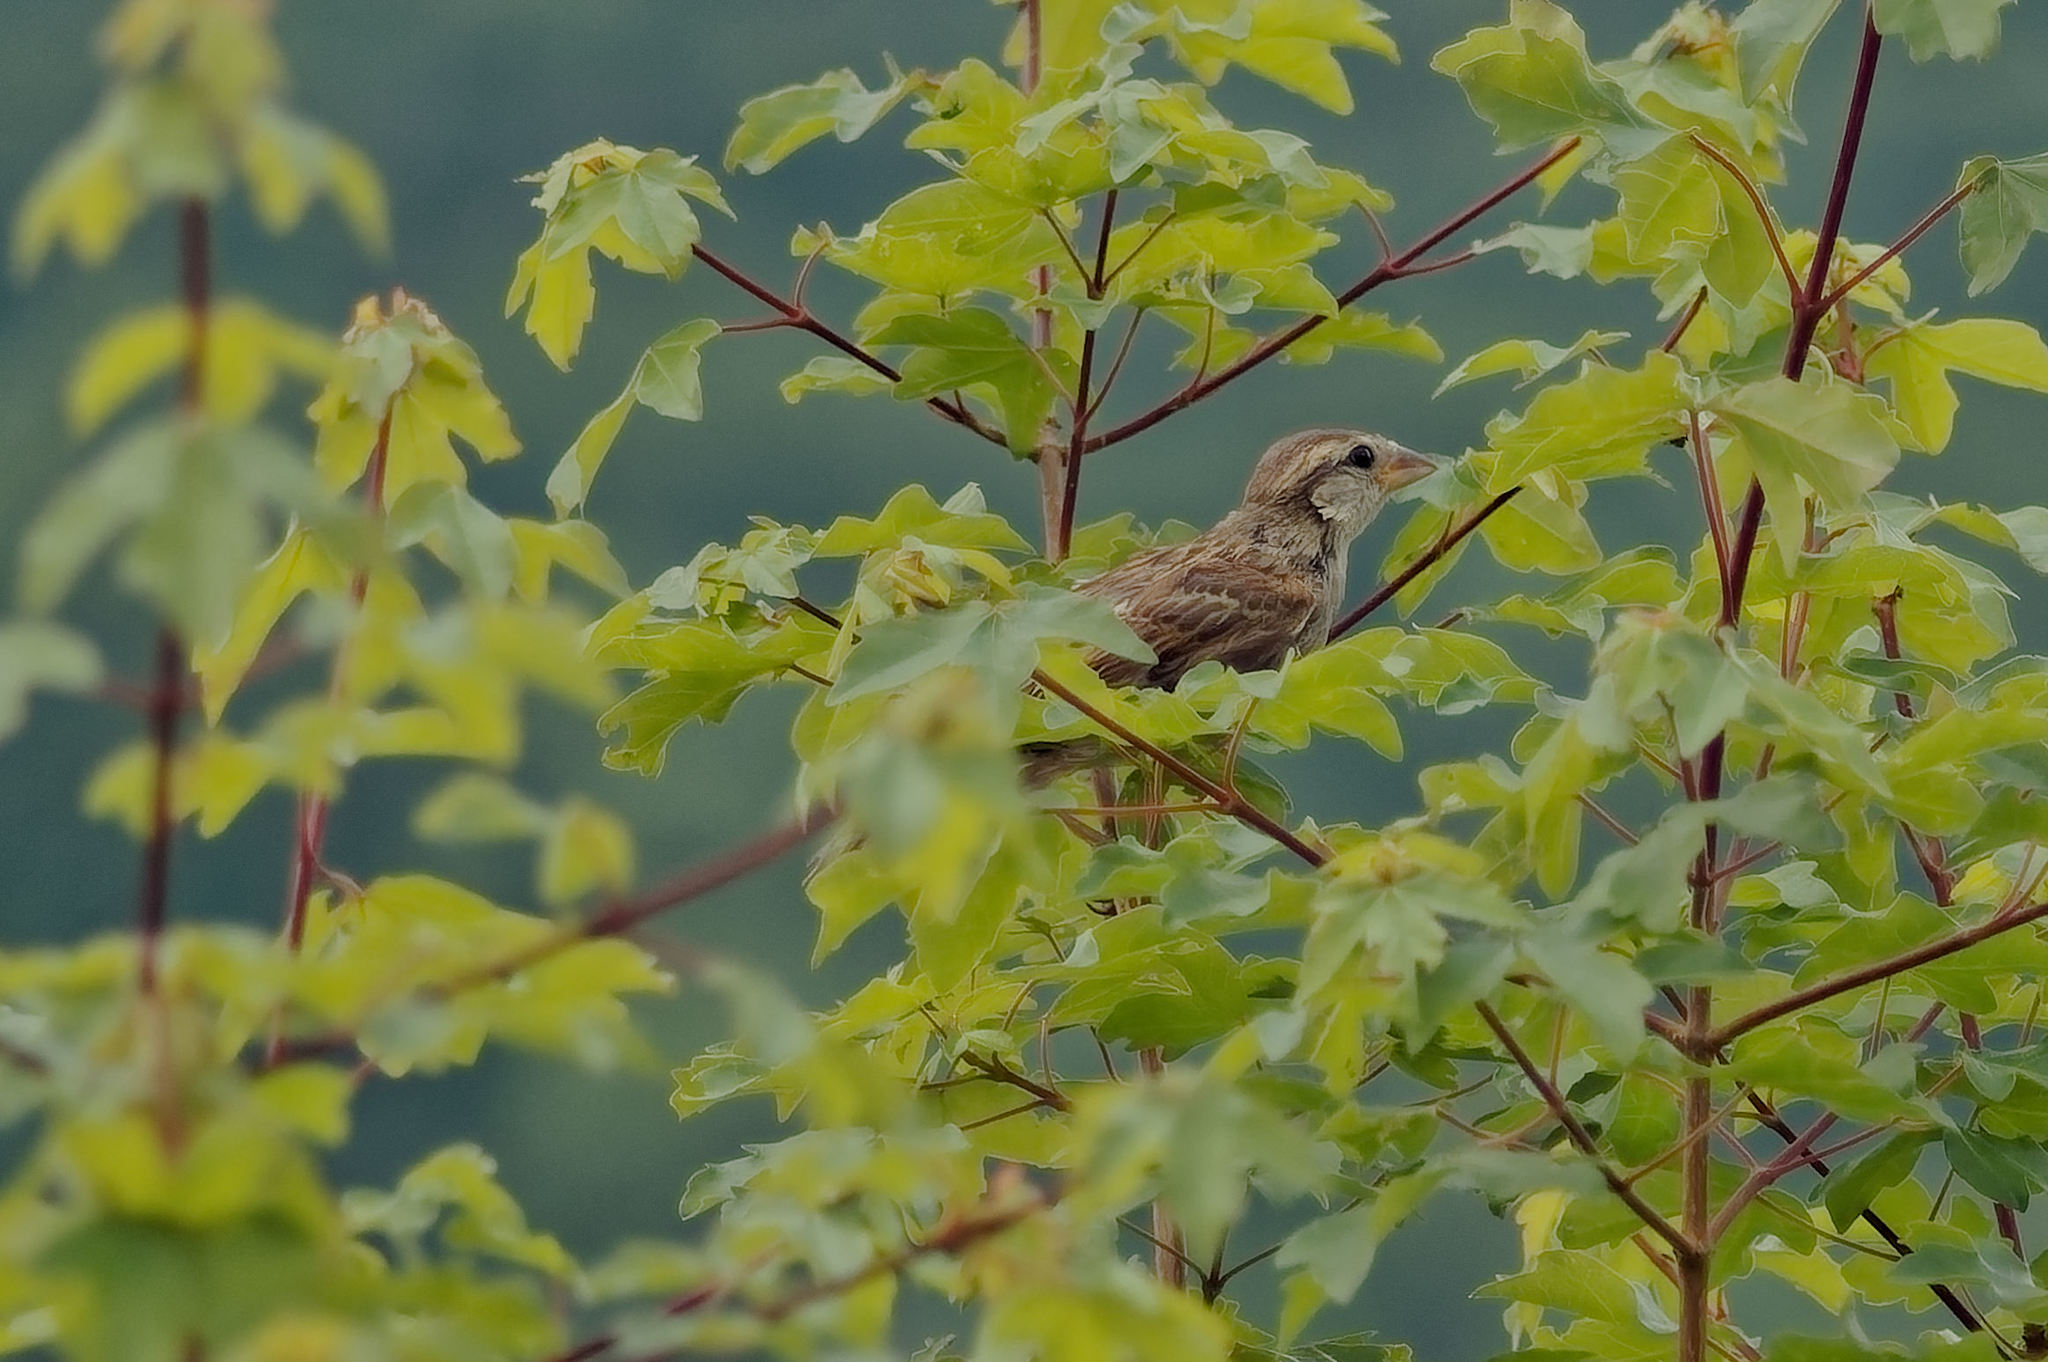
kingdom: Animalia
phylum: Chordata
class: Aves
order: Passeriformes
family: Passeridae
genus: Passer
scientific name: Passer domesticus
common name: House sparrow
